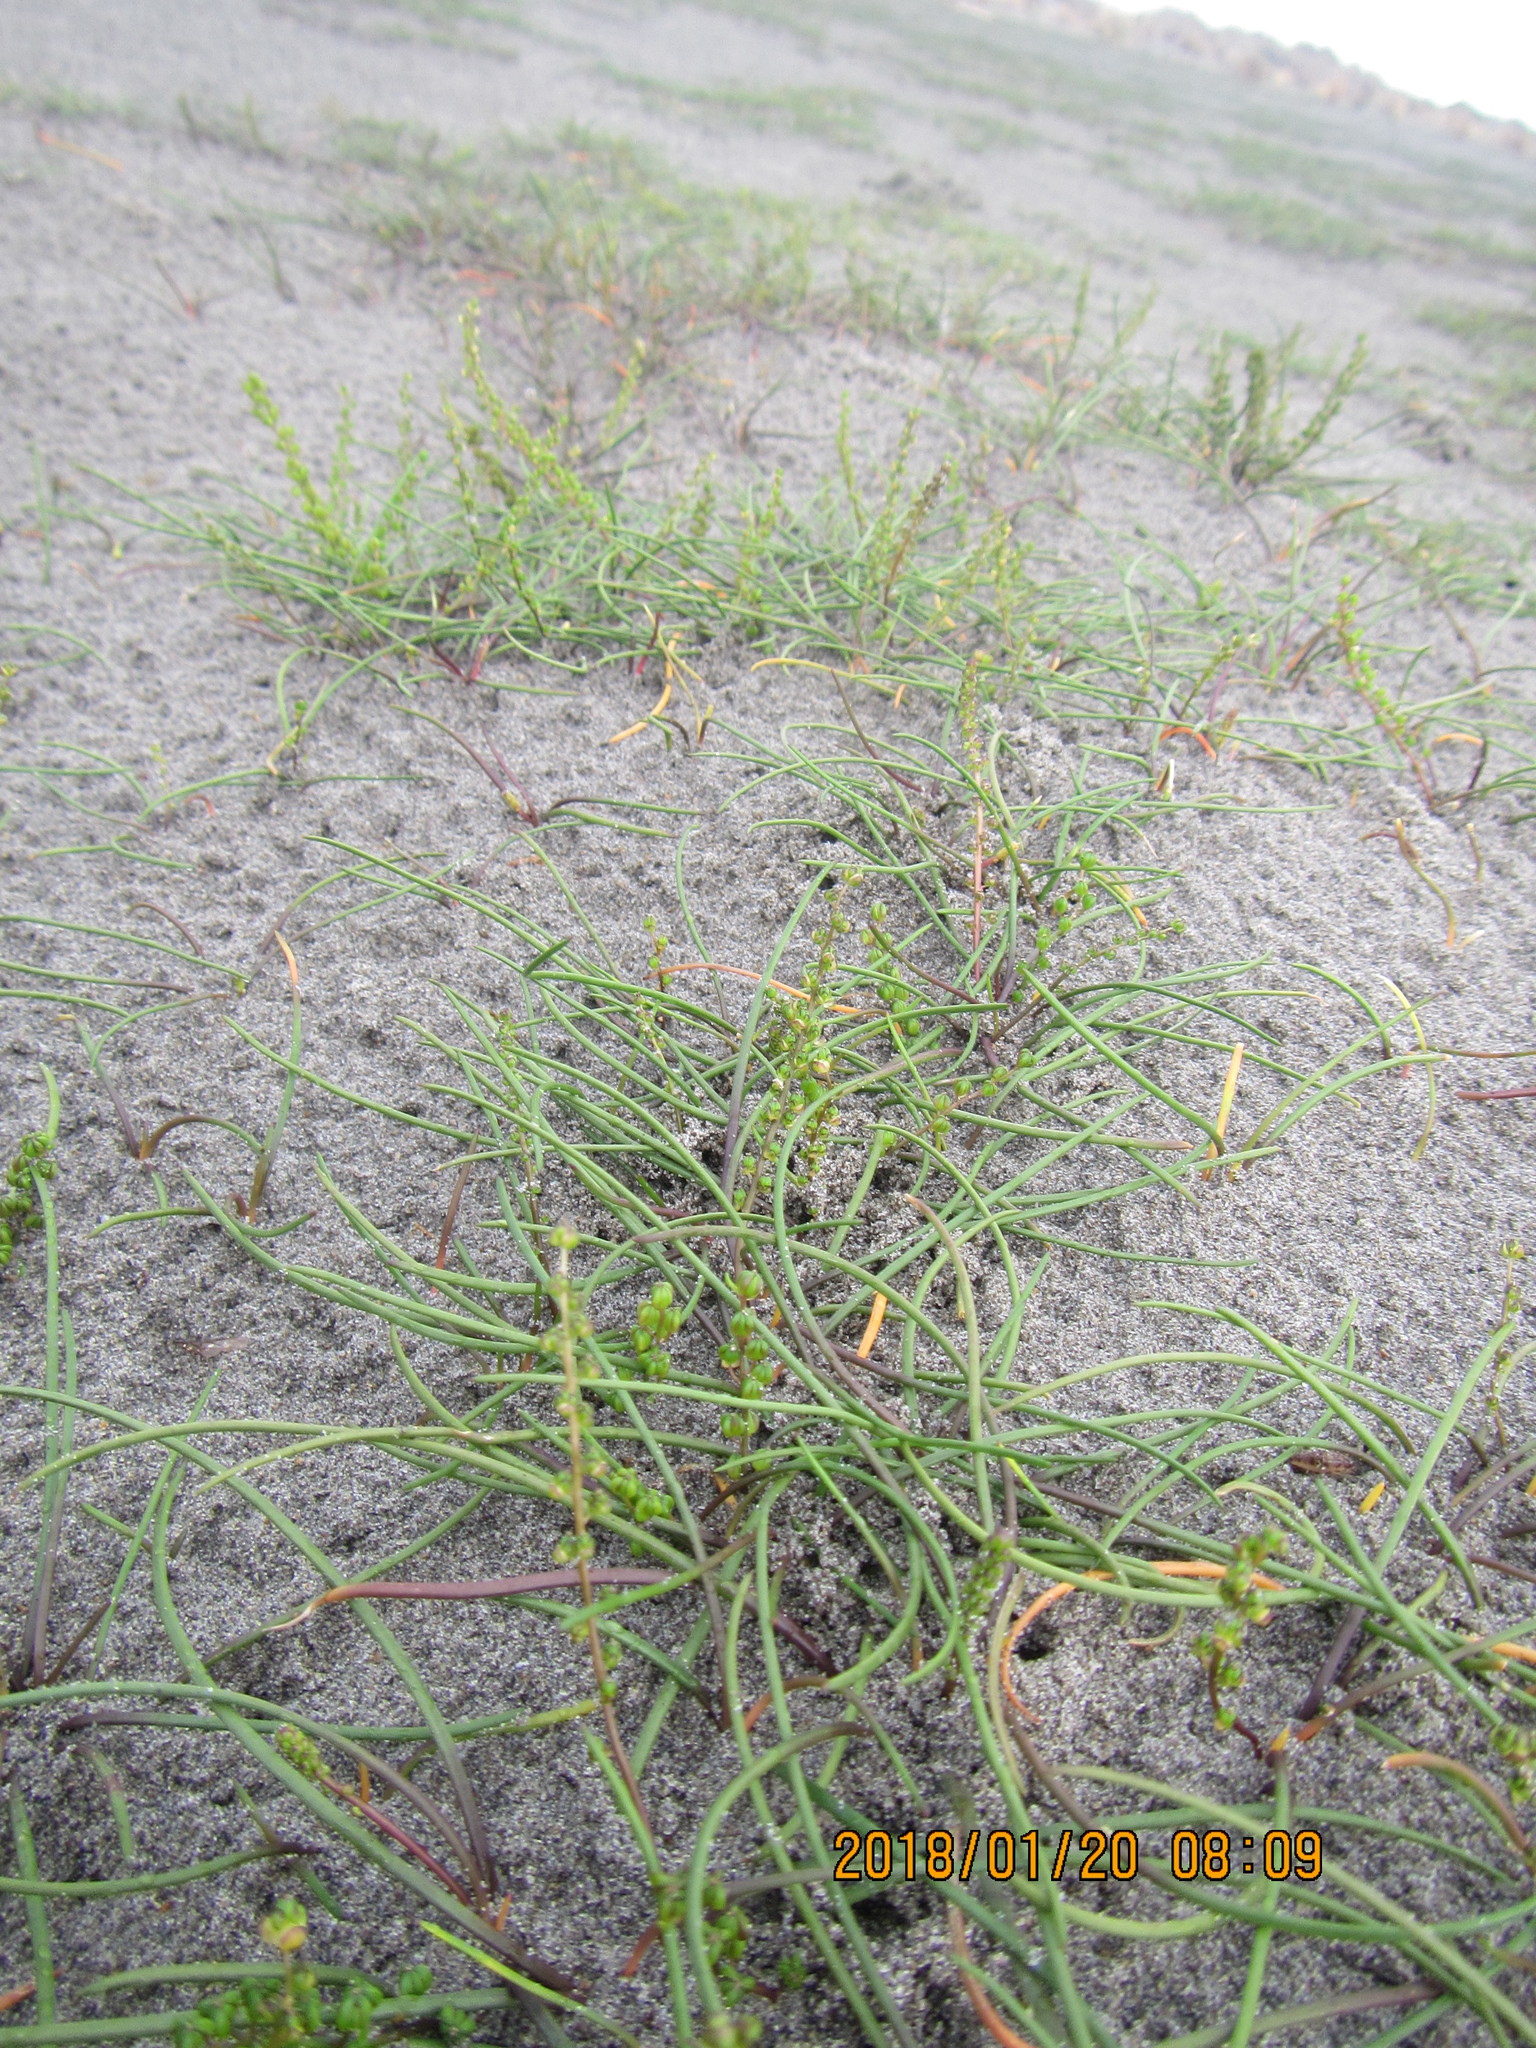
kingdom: Plantae
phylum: Tracheophyta
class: Liliopsida
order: Alismatales
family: Juncaginaceae
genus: Triglochin
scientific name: Triglochin striata
